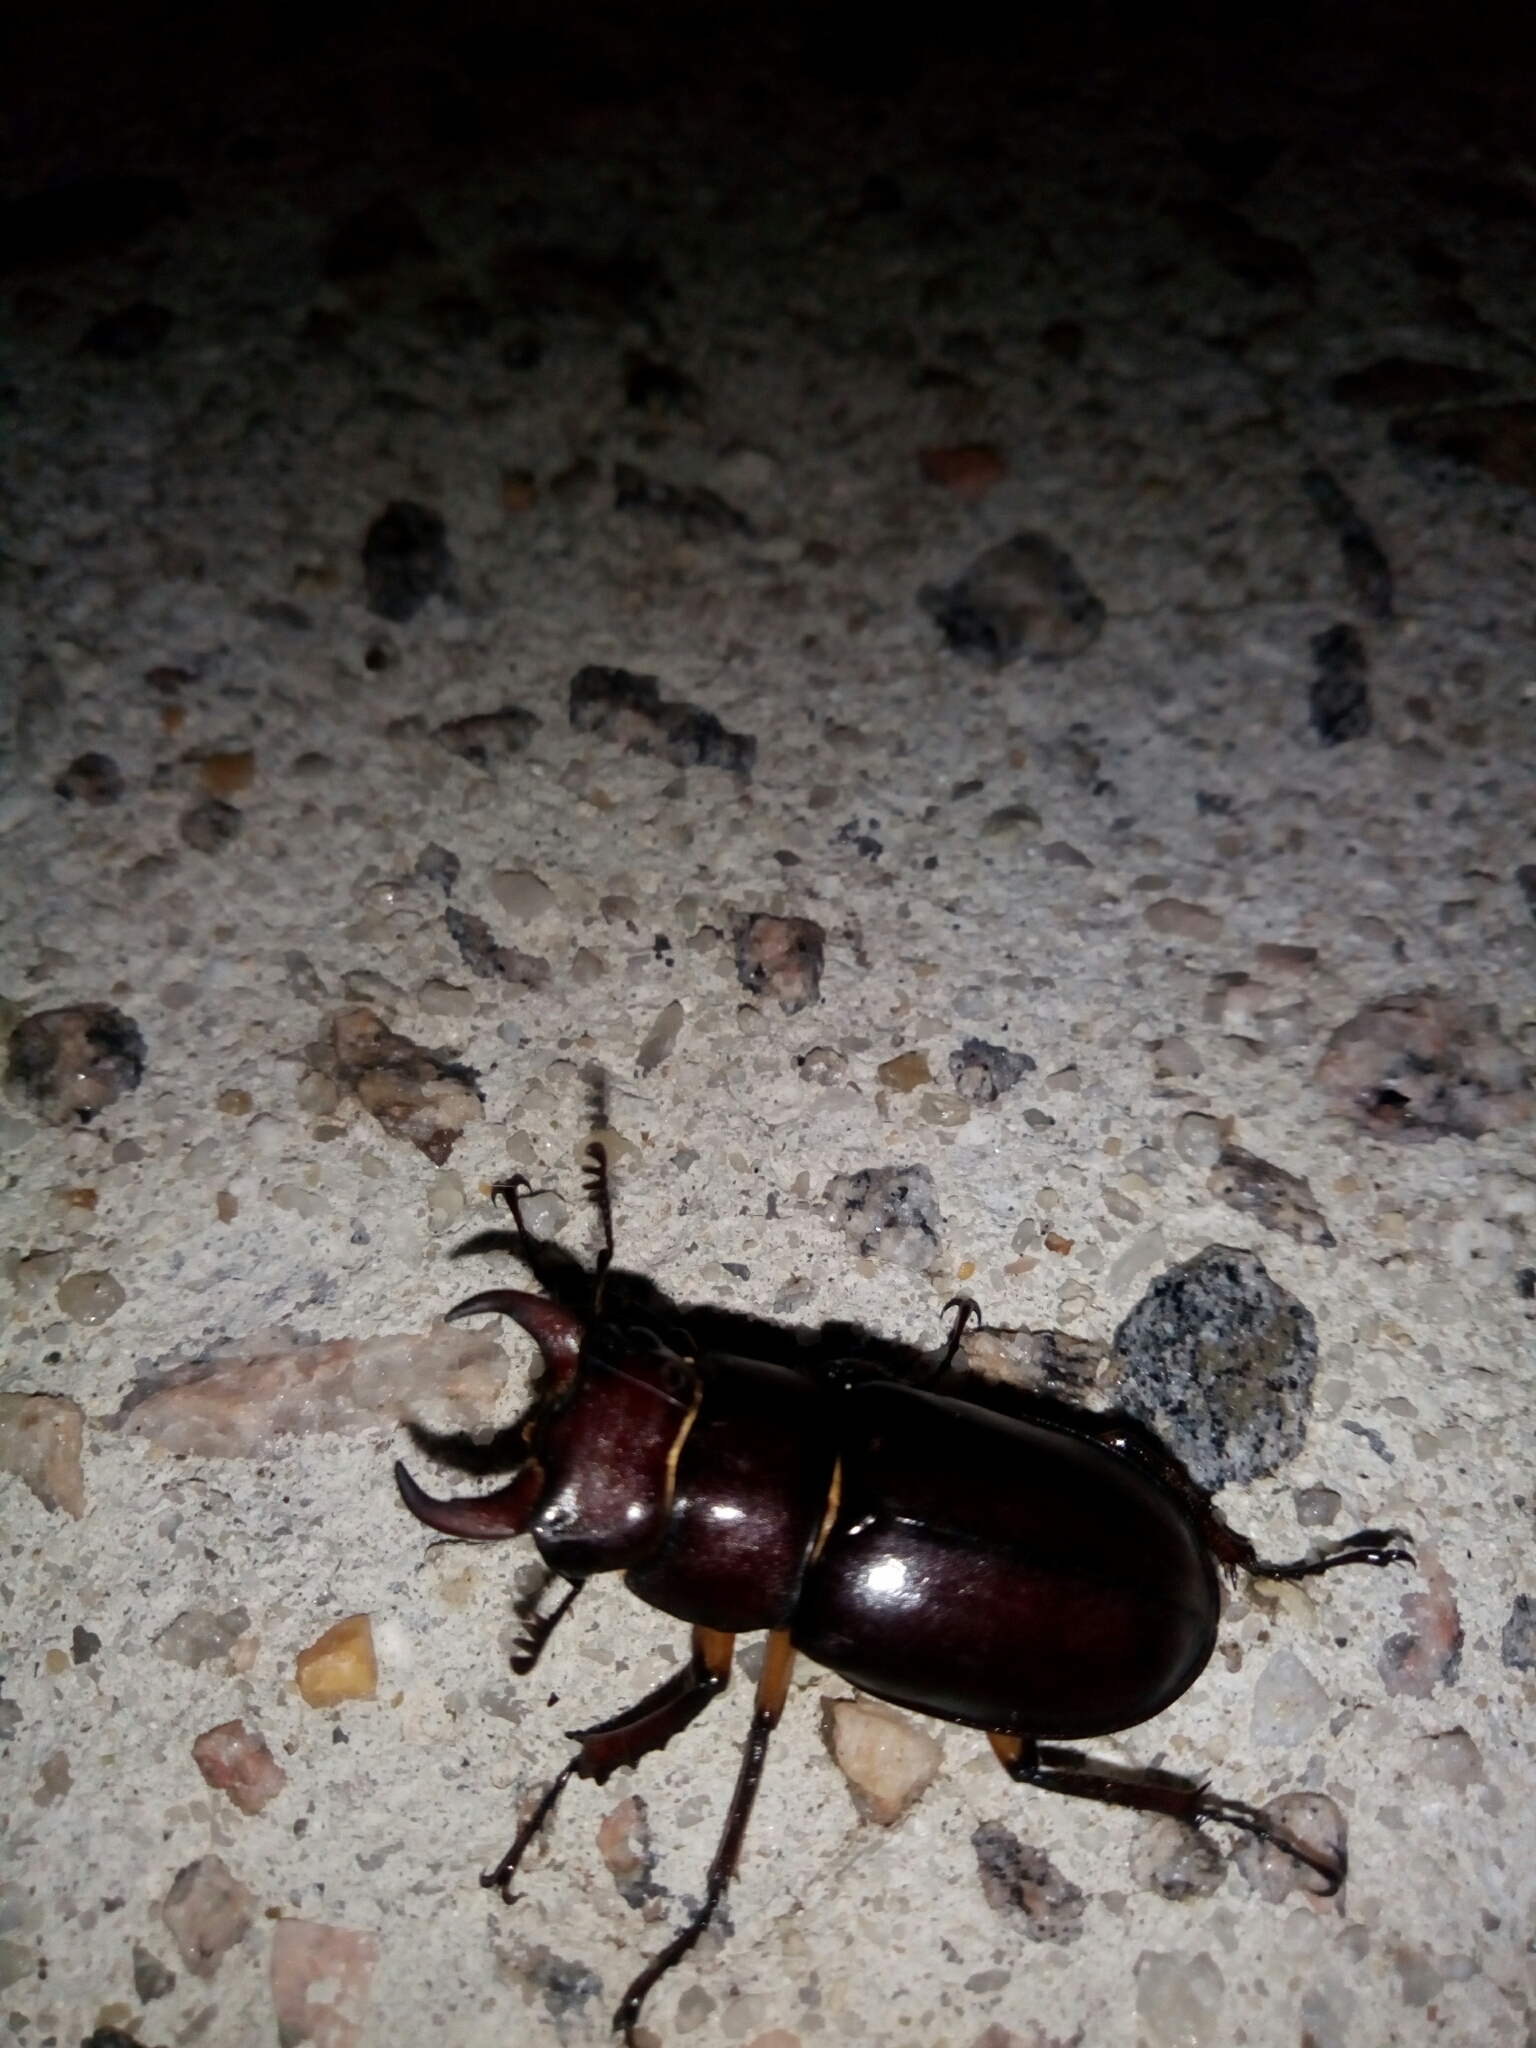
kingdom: Animalia
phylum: Arthropoda
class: Insecta
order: Coleoptera
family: Lucanidae
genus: Lucanus
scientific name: Lucanus capreolus
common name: Stag beetle
